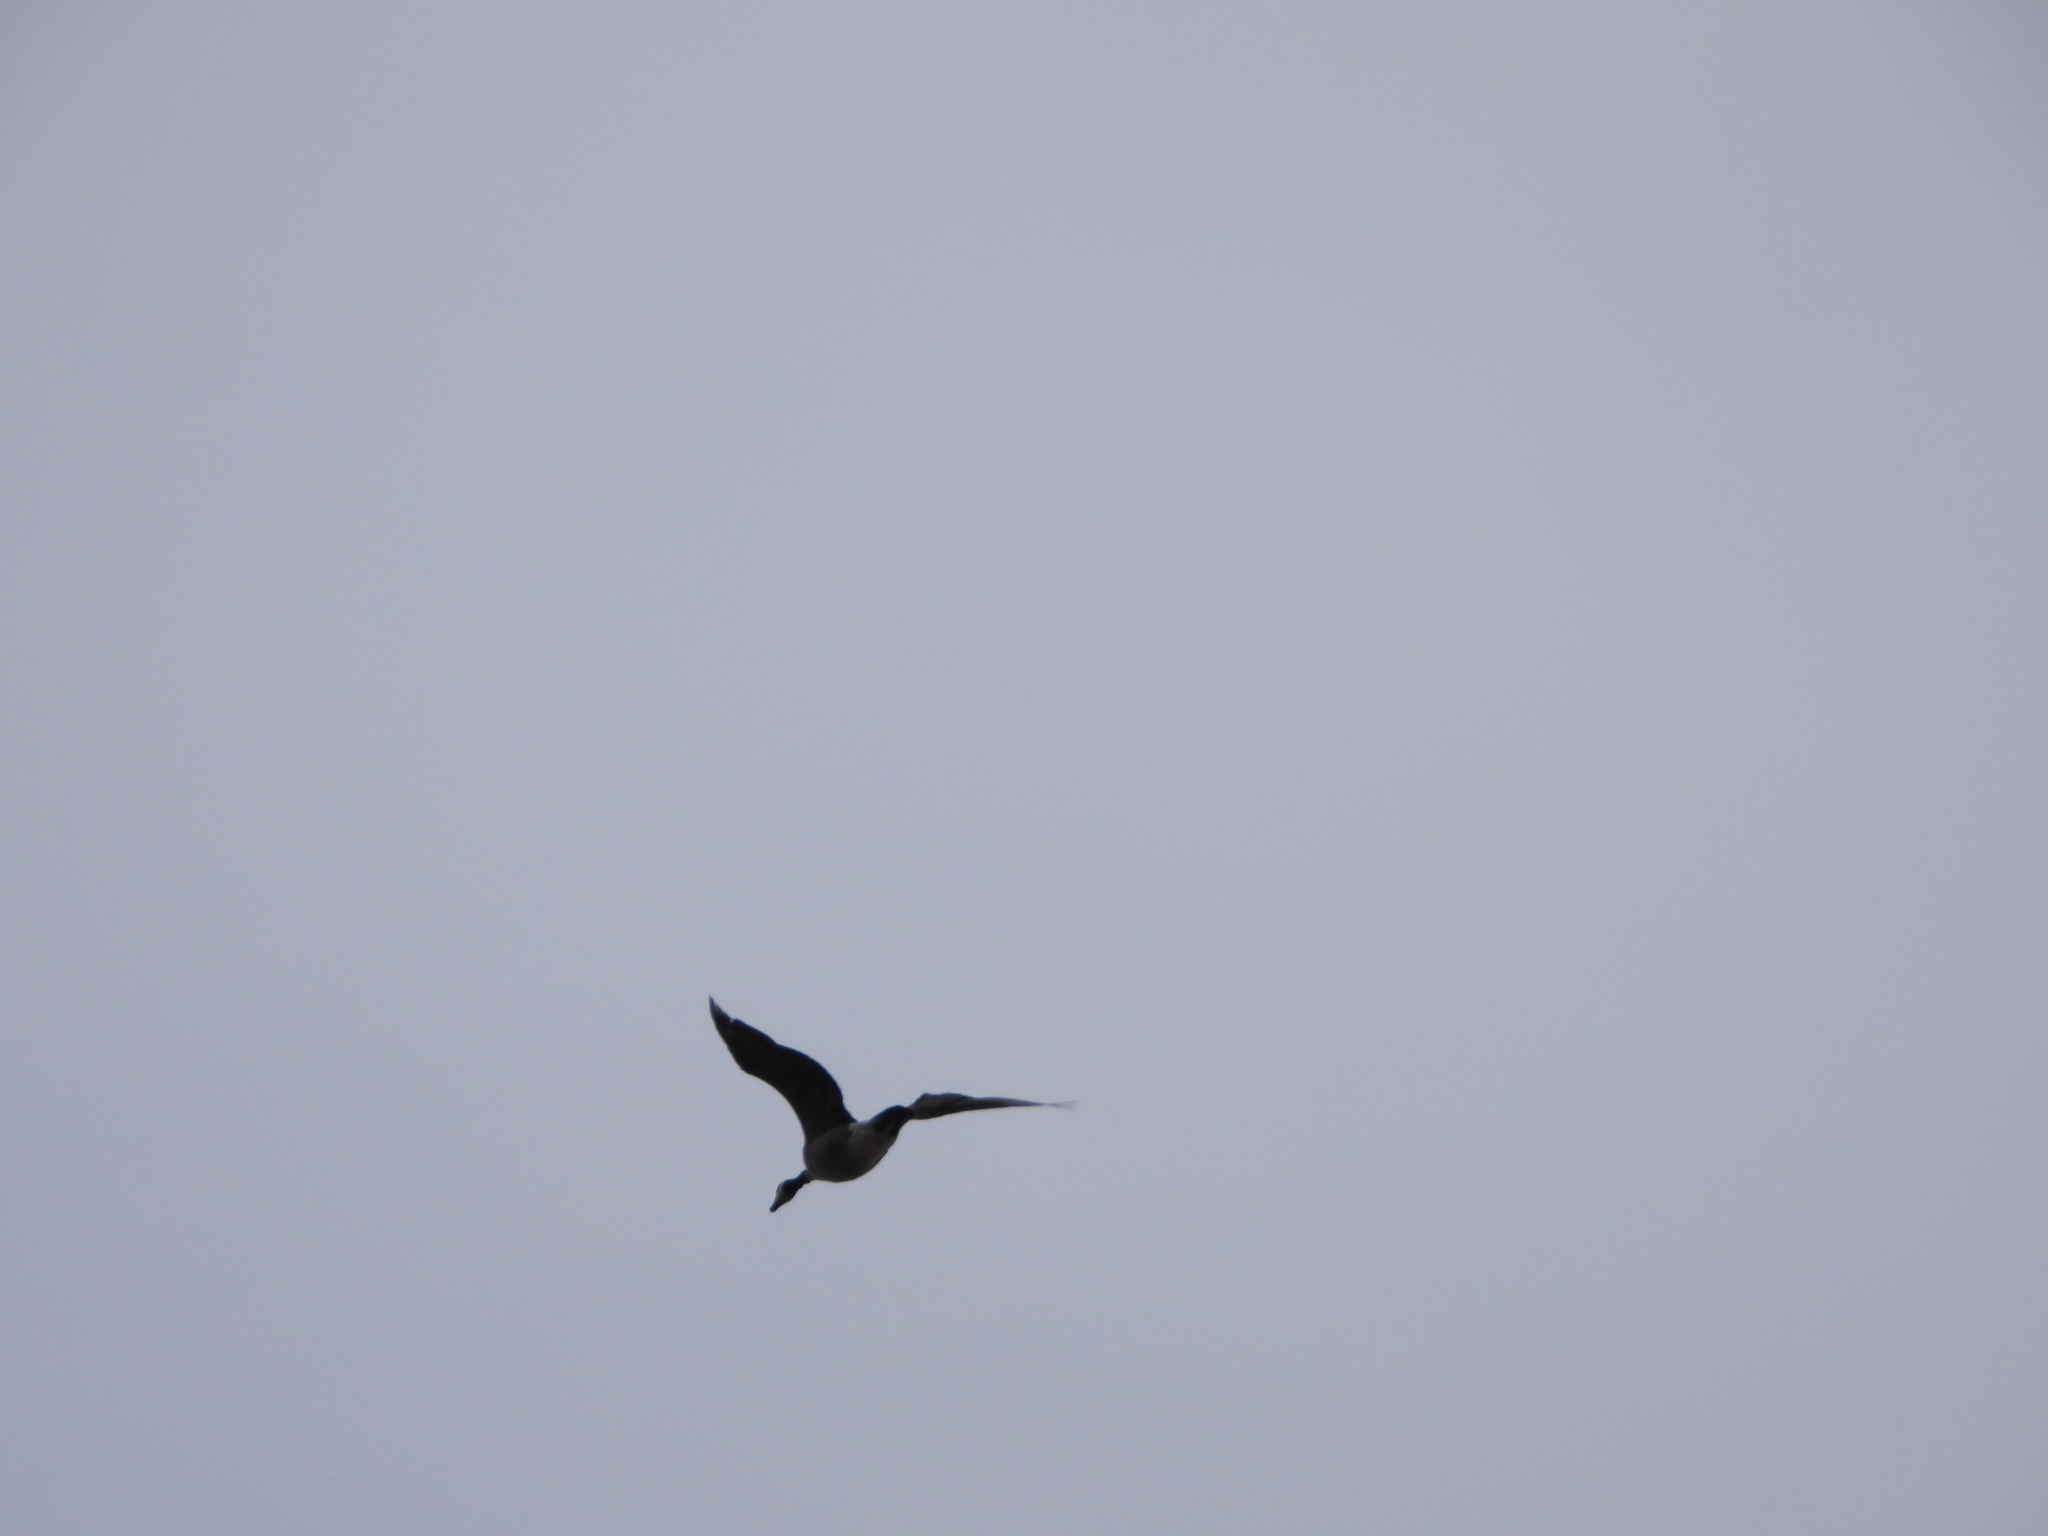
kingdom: Animalia
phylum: Chordata
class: Aves
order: Anseriformes
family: Anatidae
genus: Branta
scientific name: Branta canadensis
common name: Canada goose
